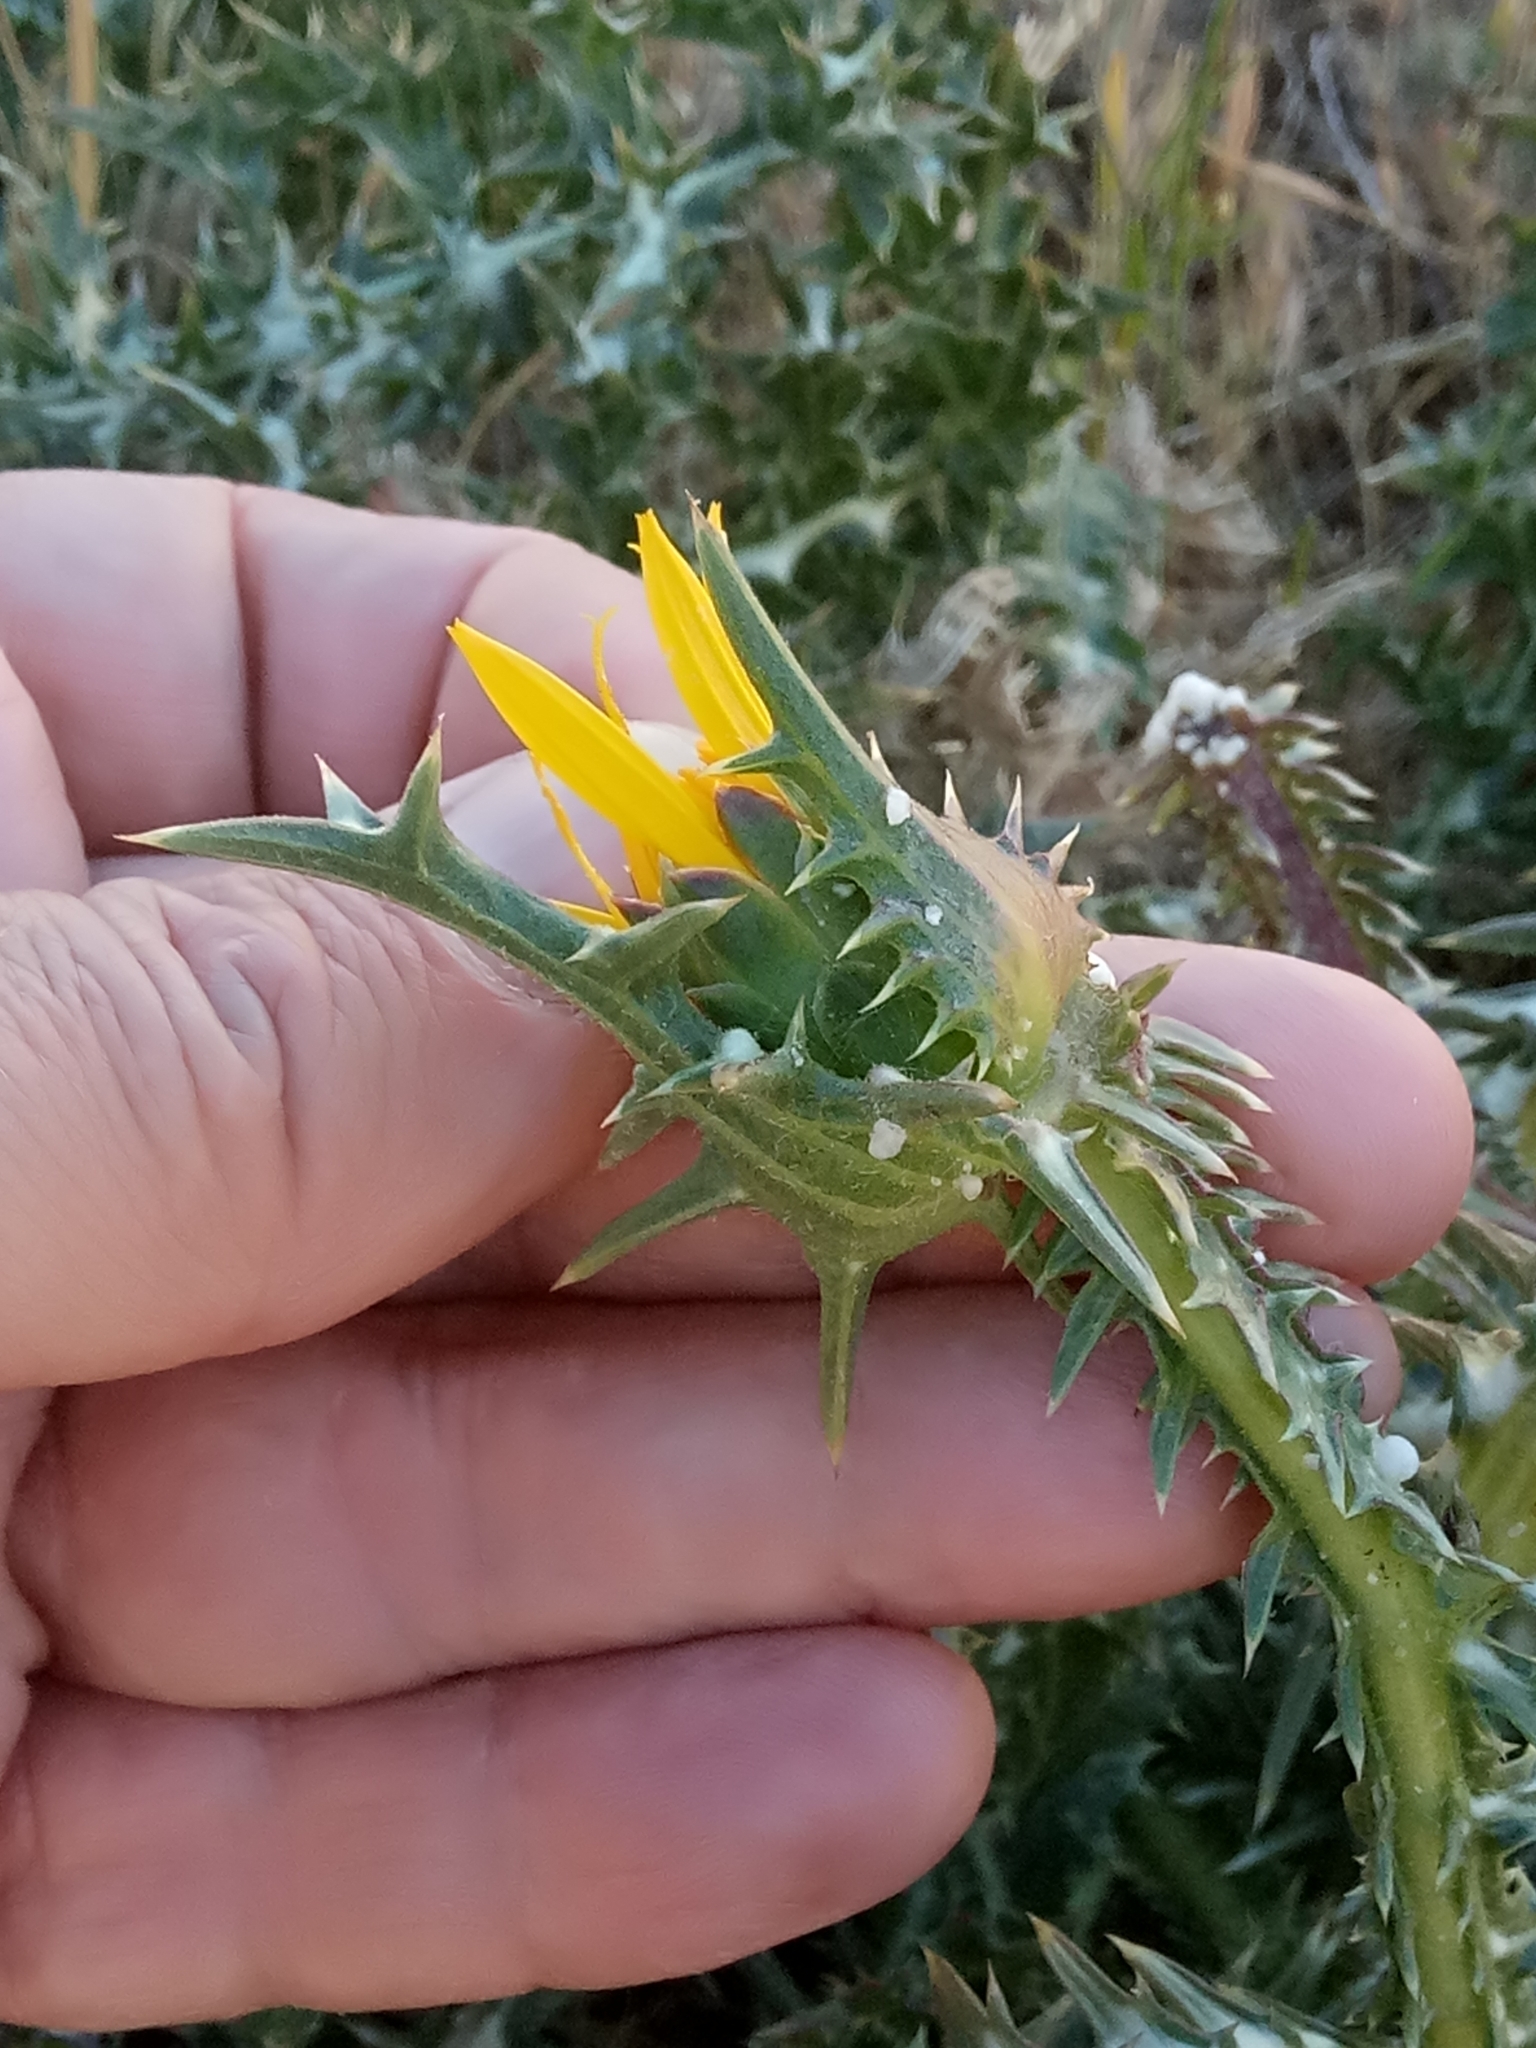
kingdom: Plantae
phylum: Tracheophyta
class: Magnoliopsida
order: Asterales
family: Asteraceae
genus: Scolymus
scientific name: Scolymus grandiflorus
